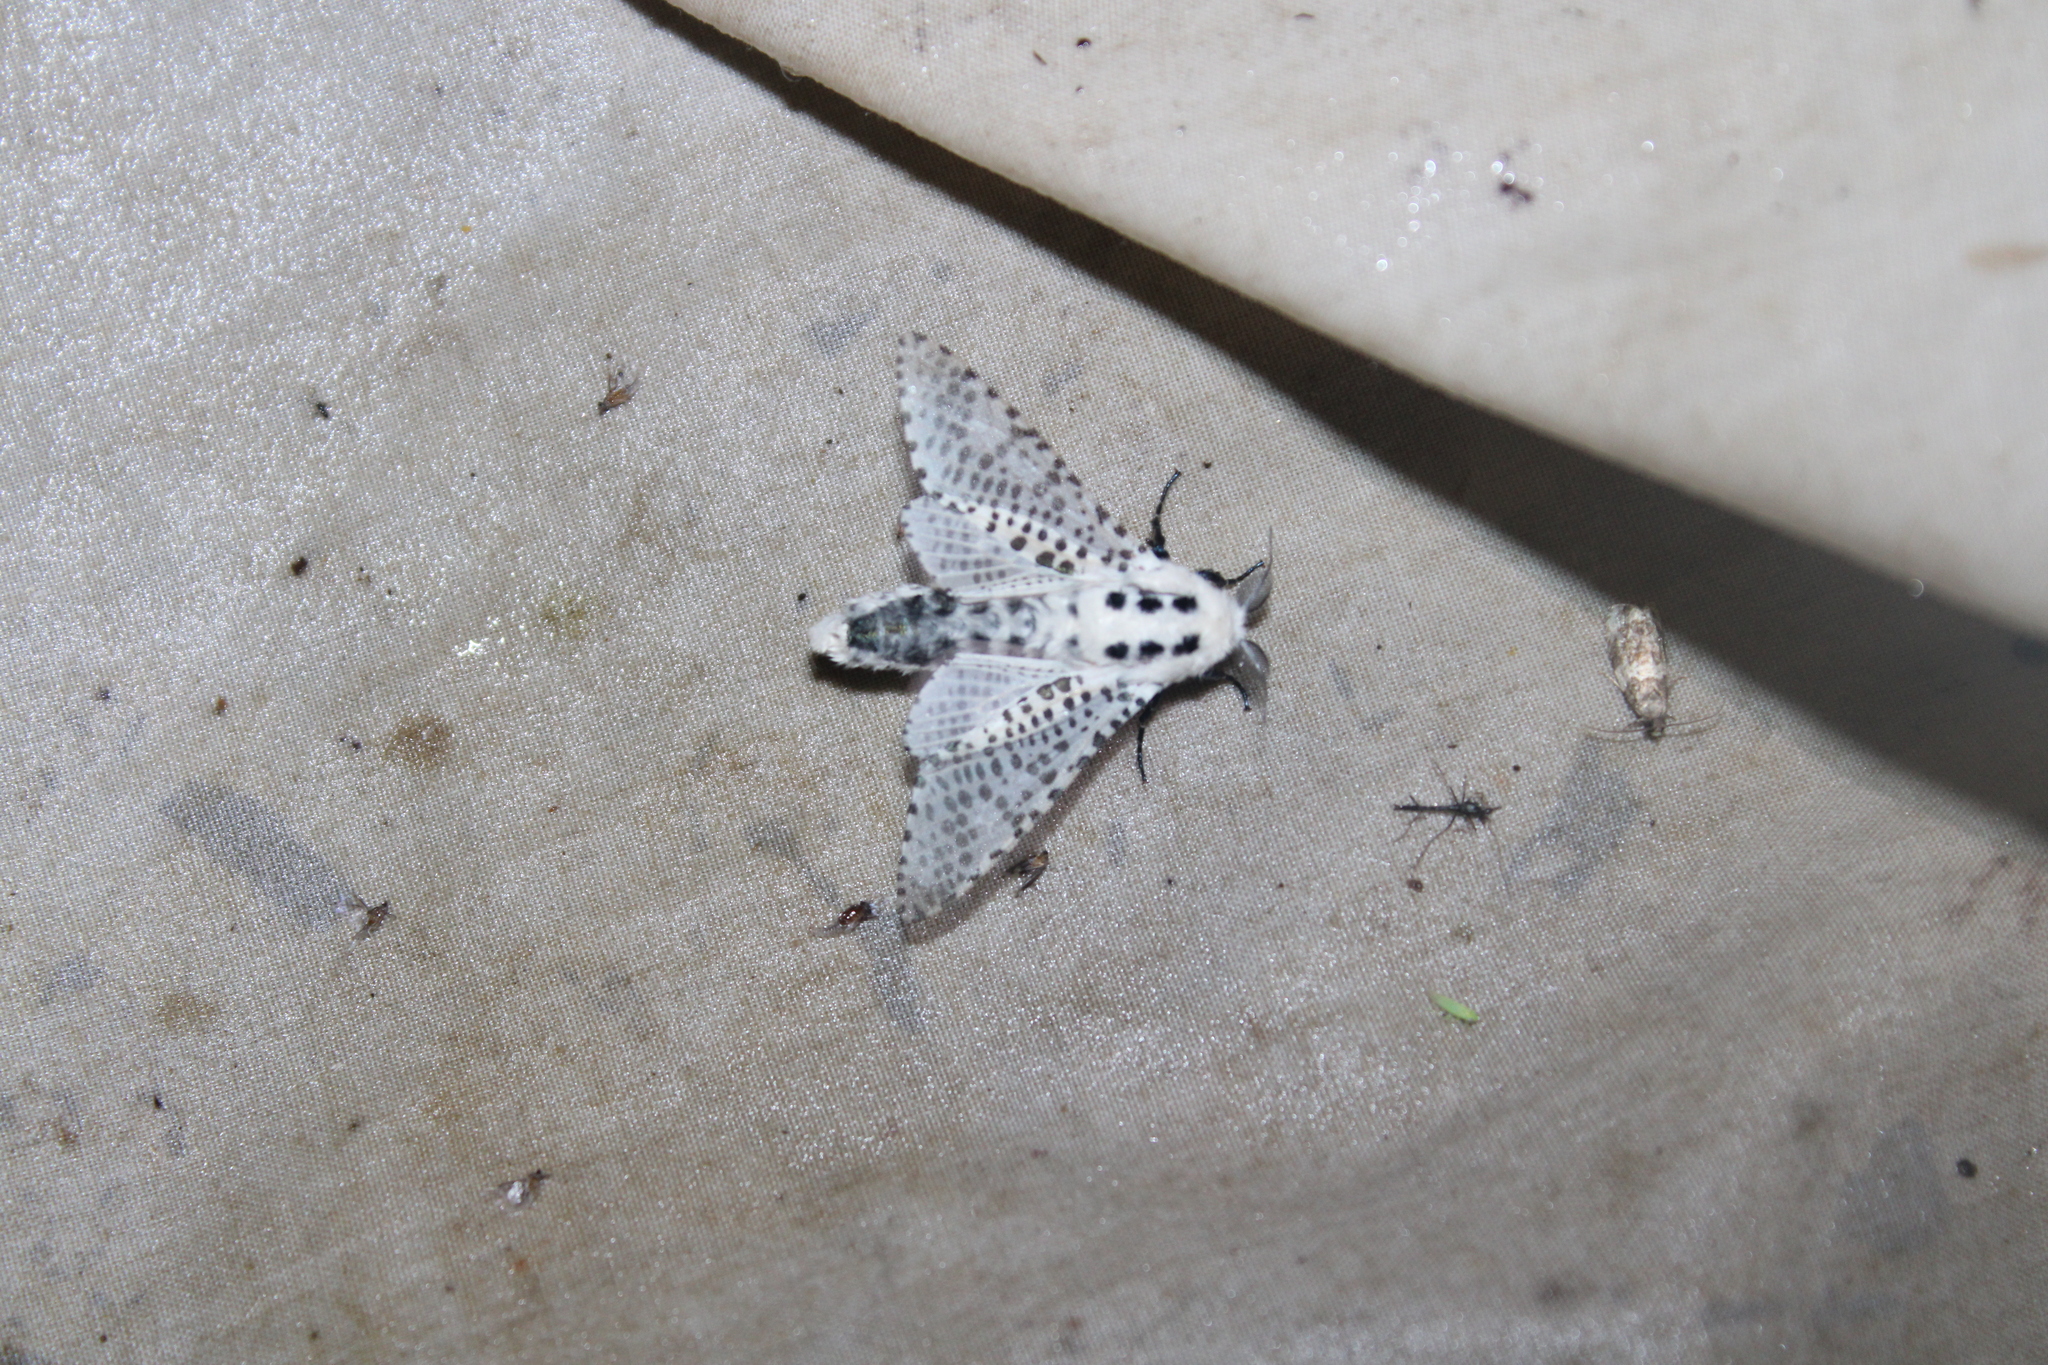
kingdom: Animalia
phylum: Arthropoda
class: Insecta
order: Lepidoptera
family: Cossidae
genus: Zeuzera
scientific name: Zeuzera pyrina
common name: Leopard moth
